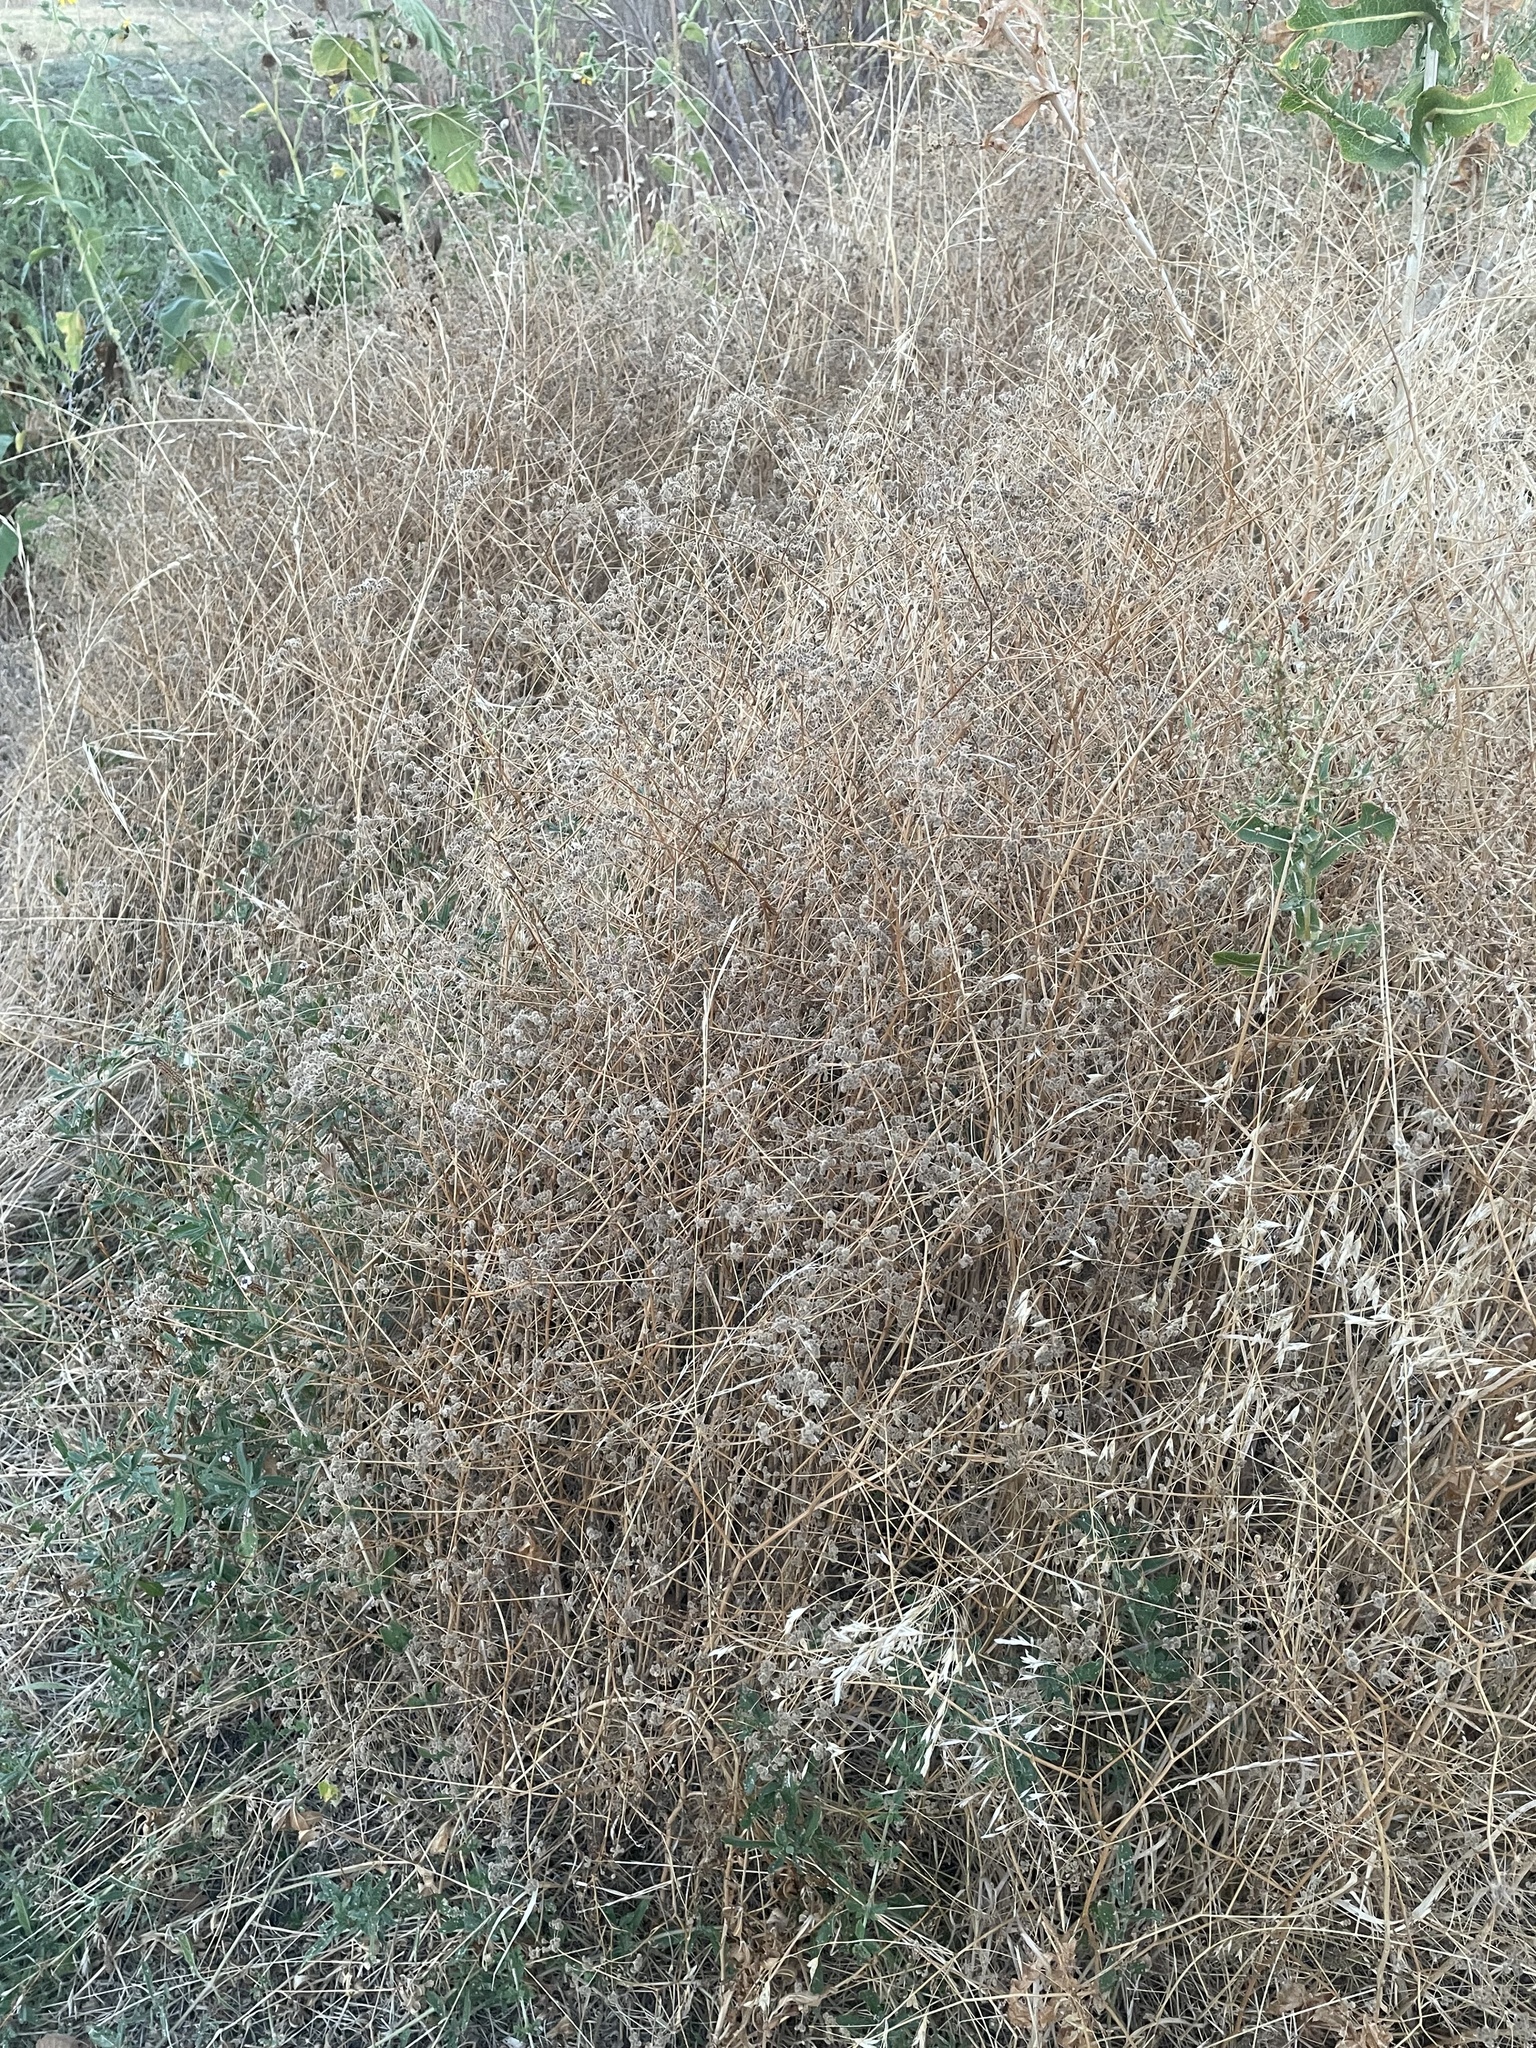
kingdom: Plantae
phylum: Tracheophyta
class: Magnoliopsida
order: Apiales
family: Apiaceae
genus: Torilis
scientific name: Torilis arvensis
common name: Spreading hedge-parsley
